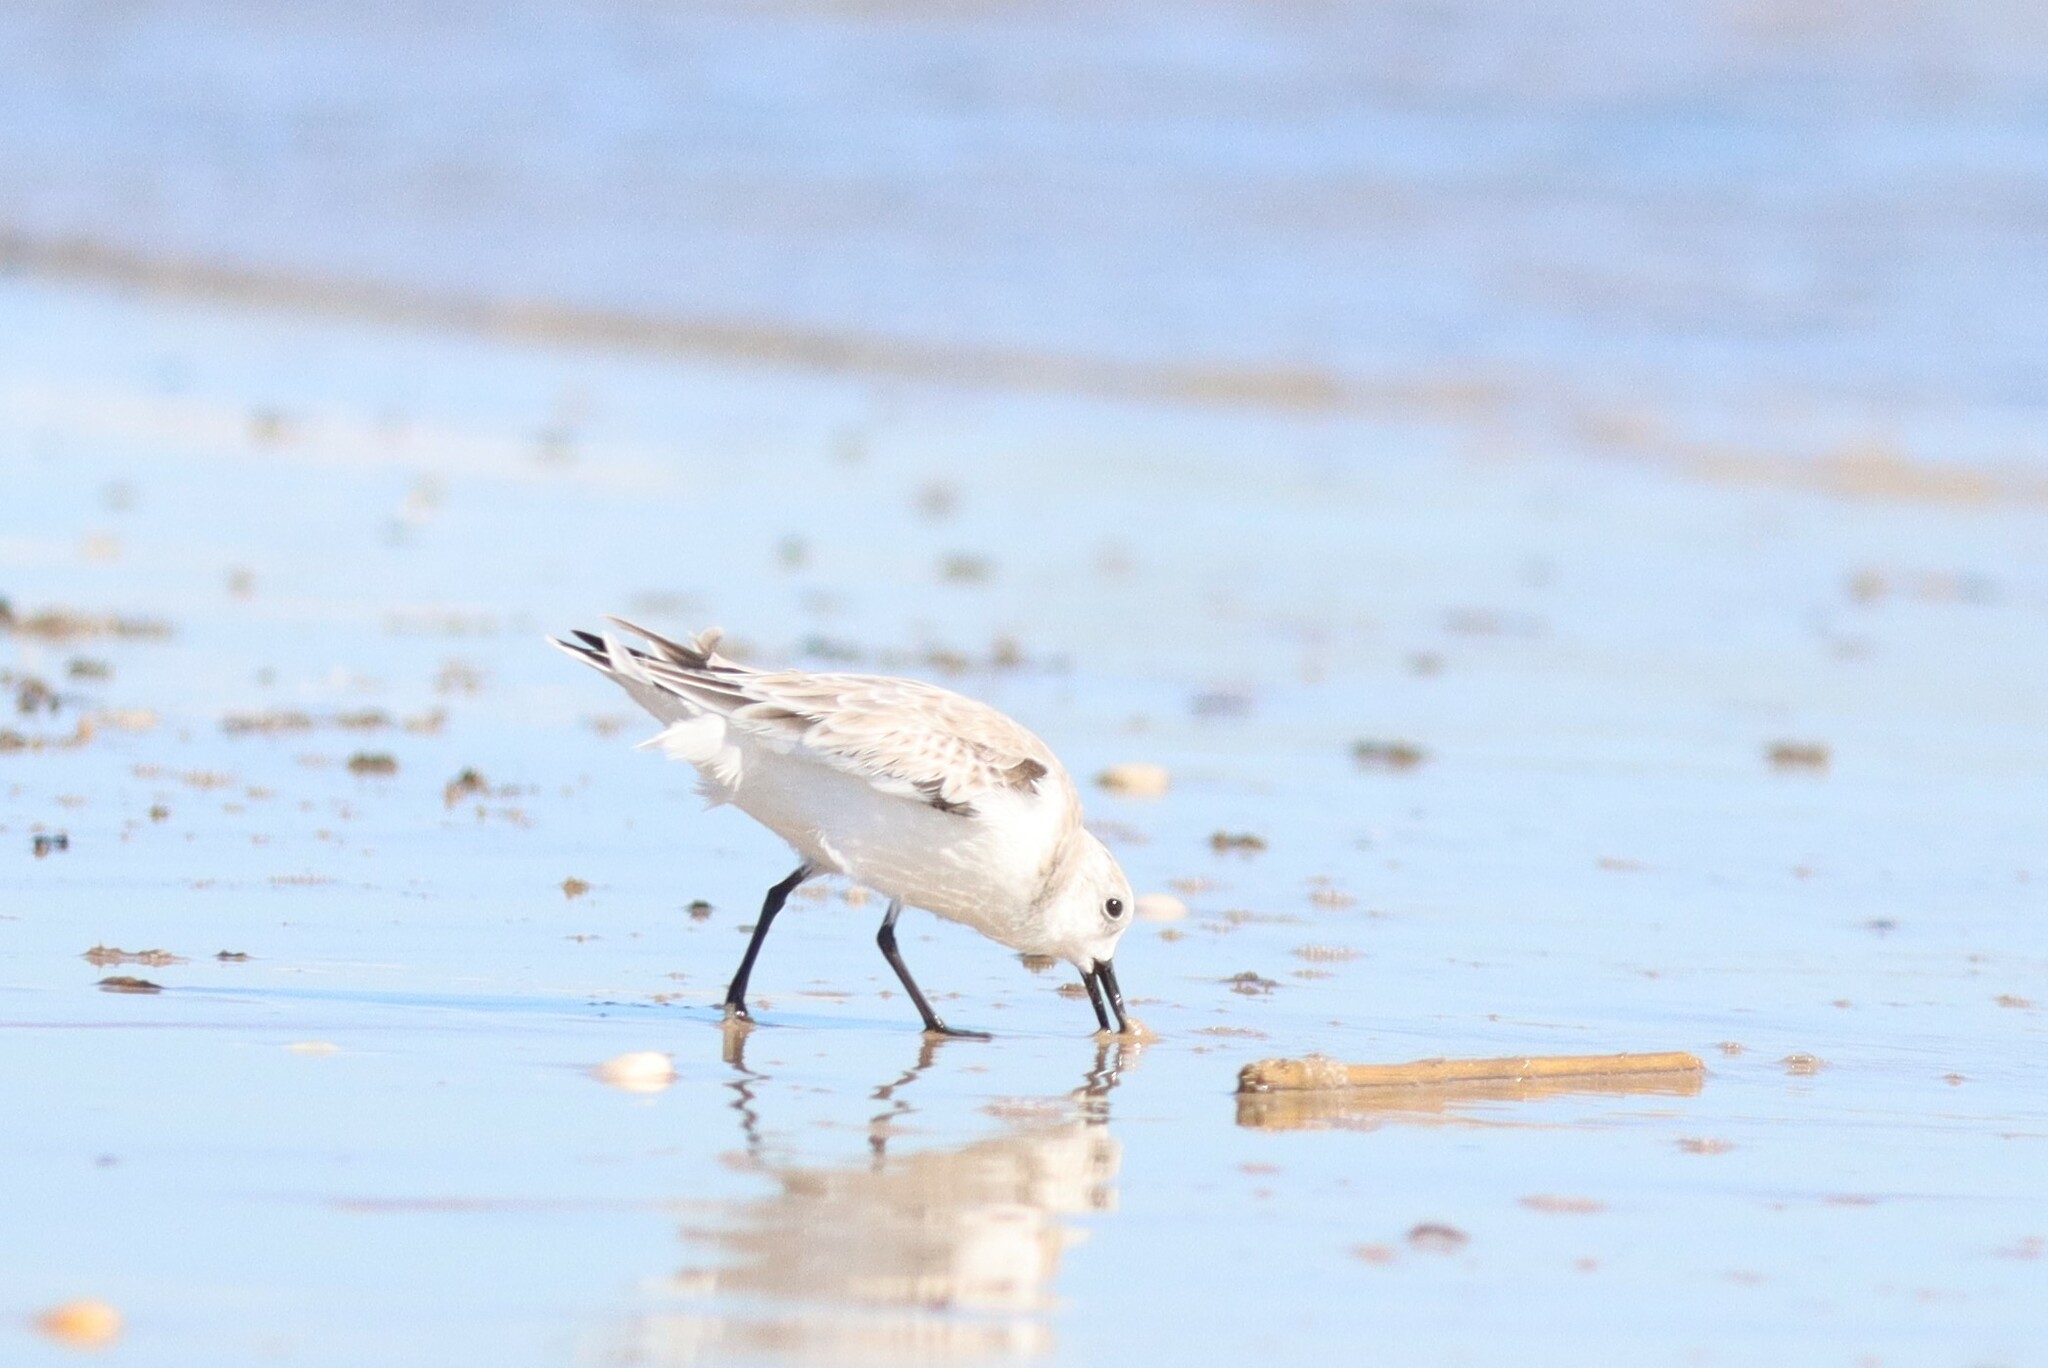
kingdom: Animalia
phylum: Chordata
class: Aves
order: Charadriiformes
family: Scolopacidae
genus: Calidris
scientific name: Calidris alba
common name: Sanderling
